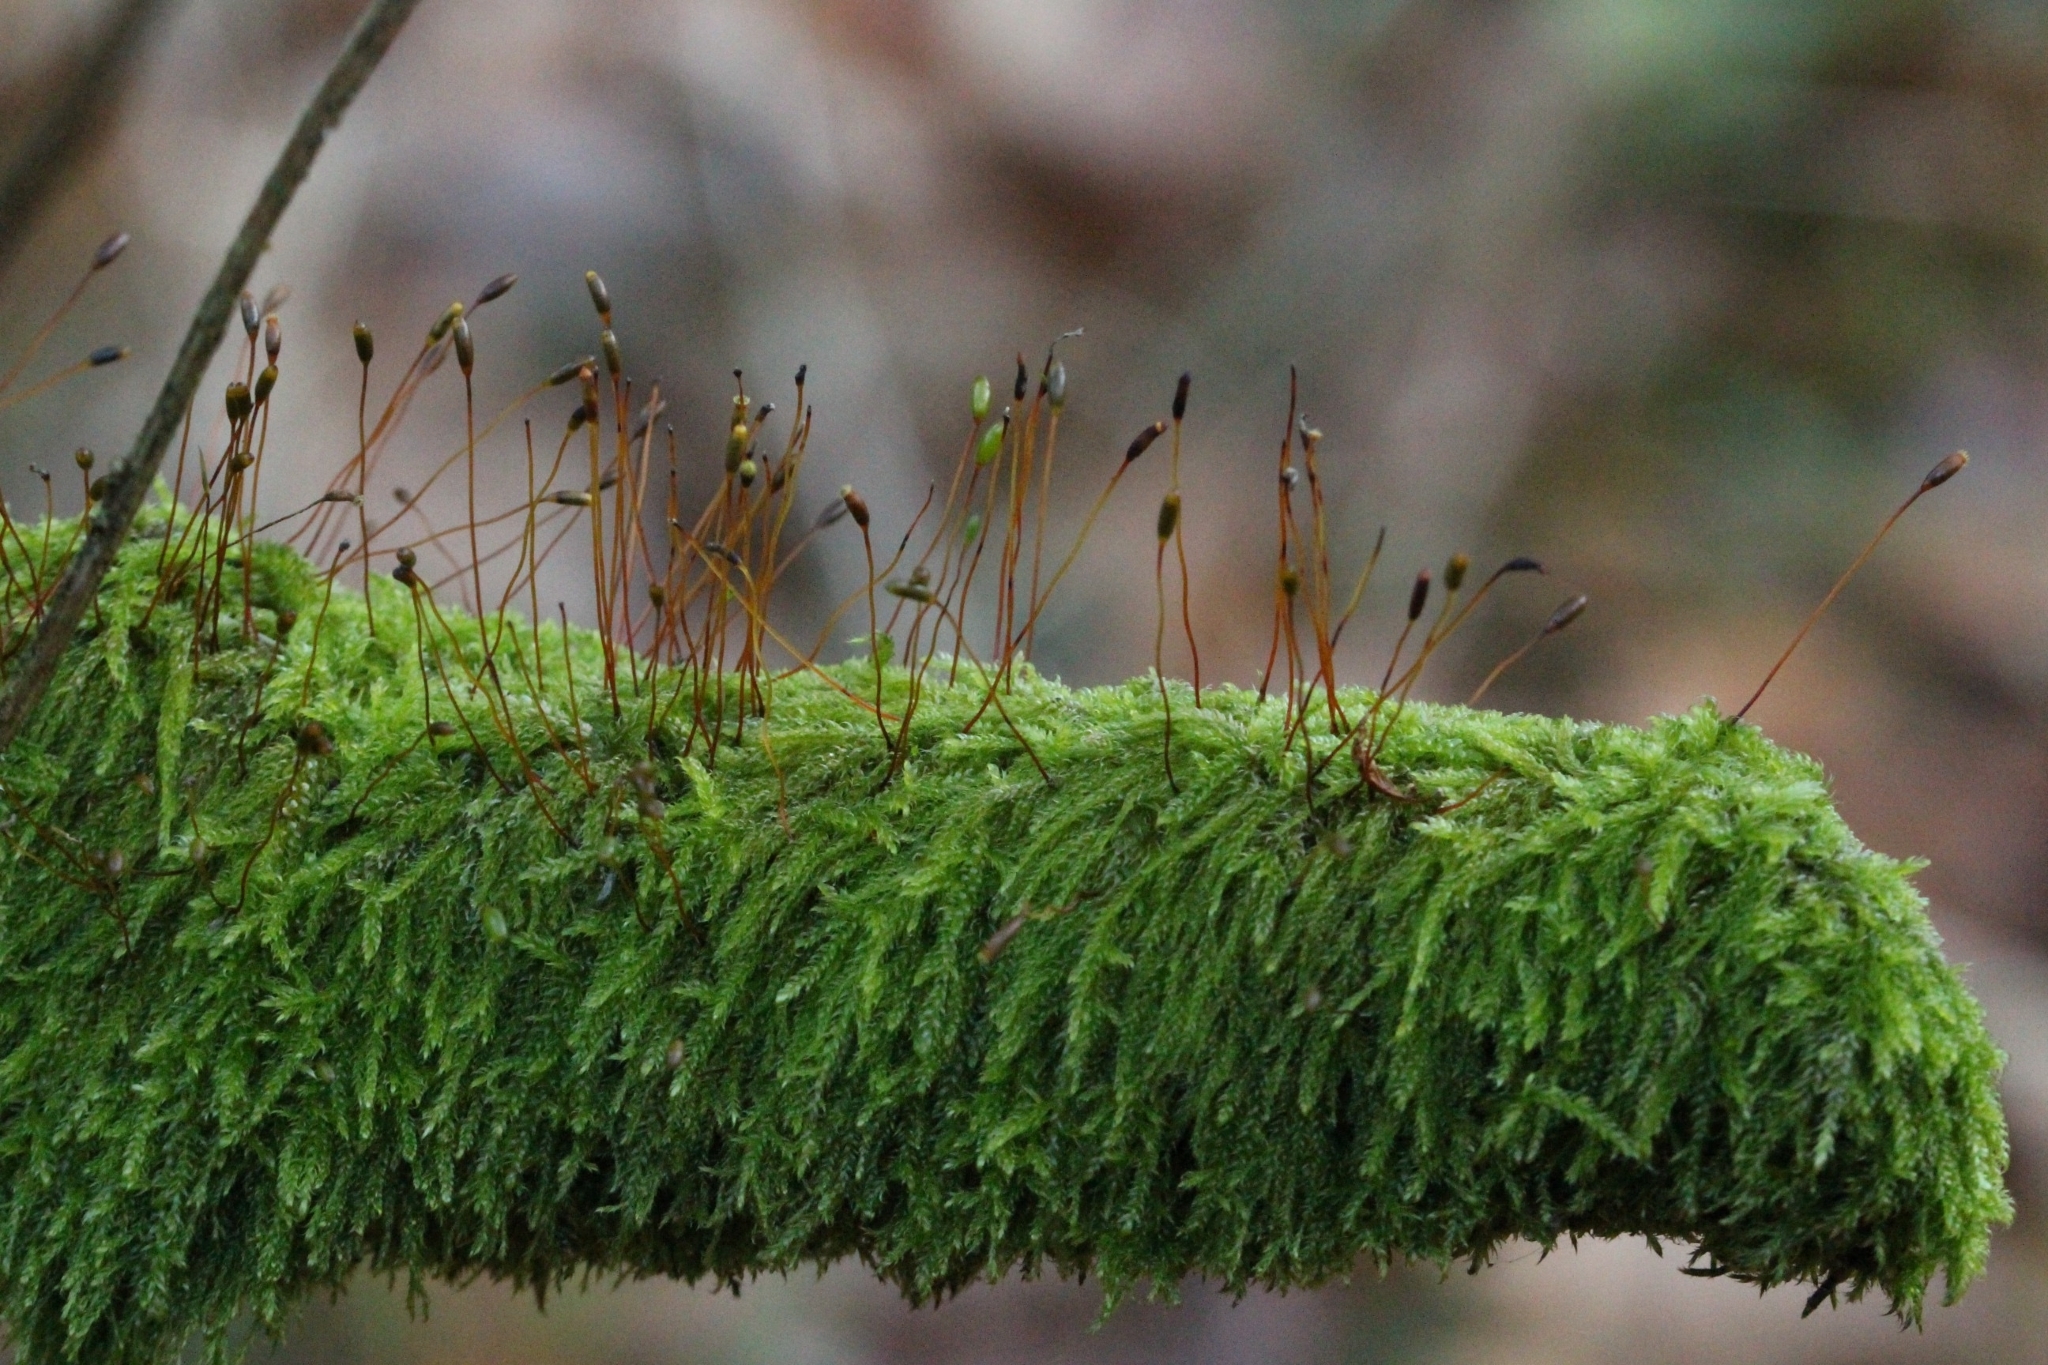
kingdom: Plantae
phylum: Bryophyta
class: Bryopsida
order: Hypnales
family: Hypnaceae
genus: Hypnum
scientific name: Hypnum andoi
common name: Ando's plait moss
